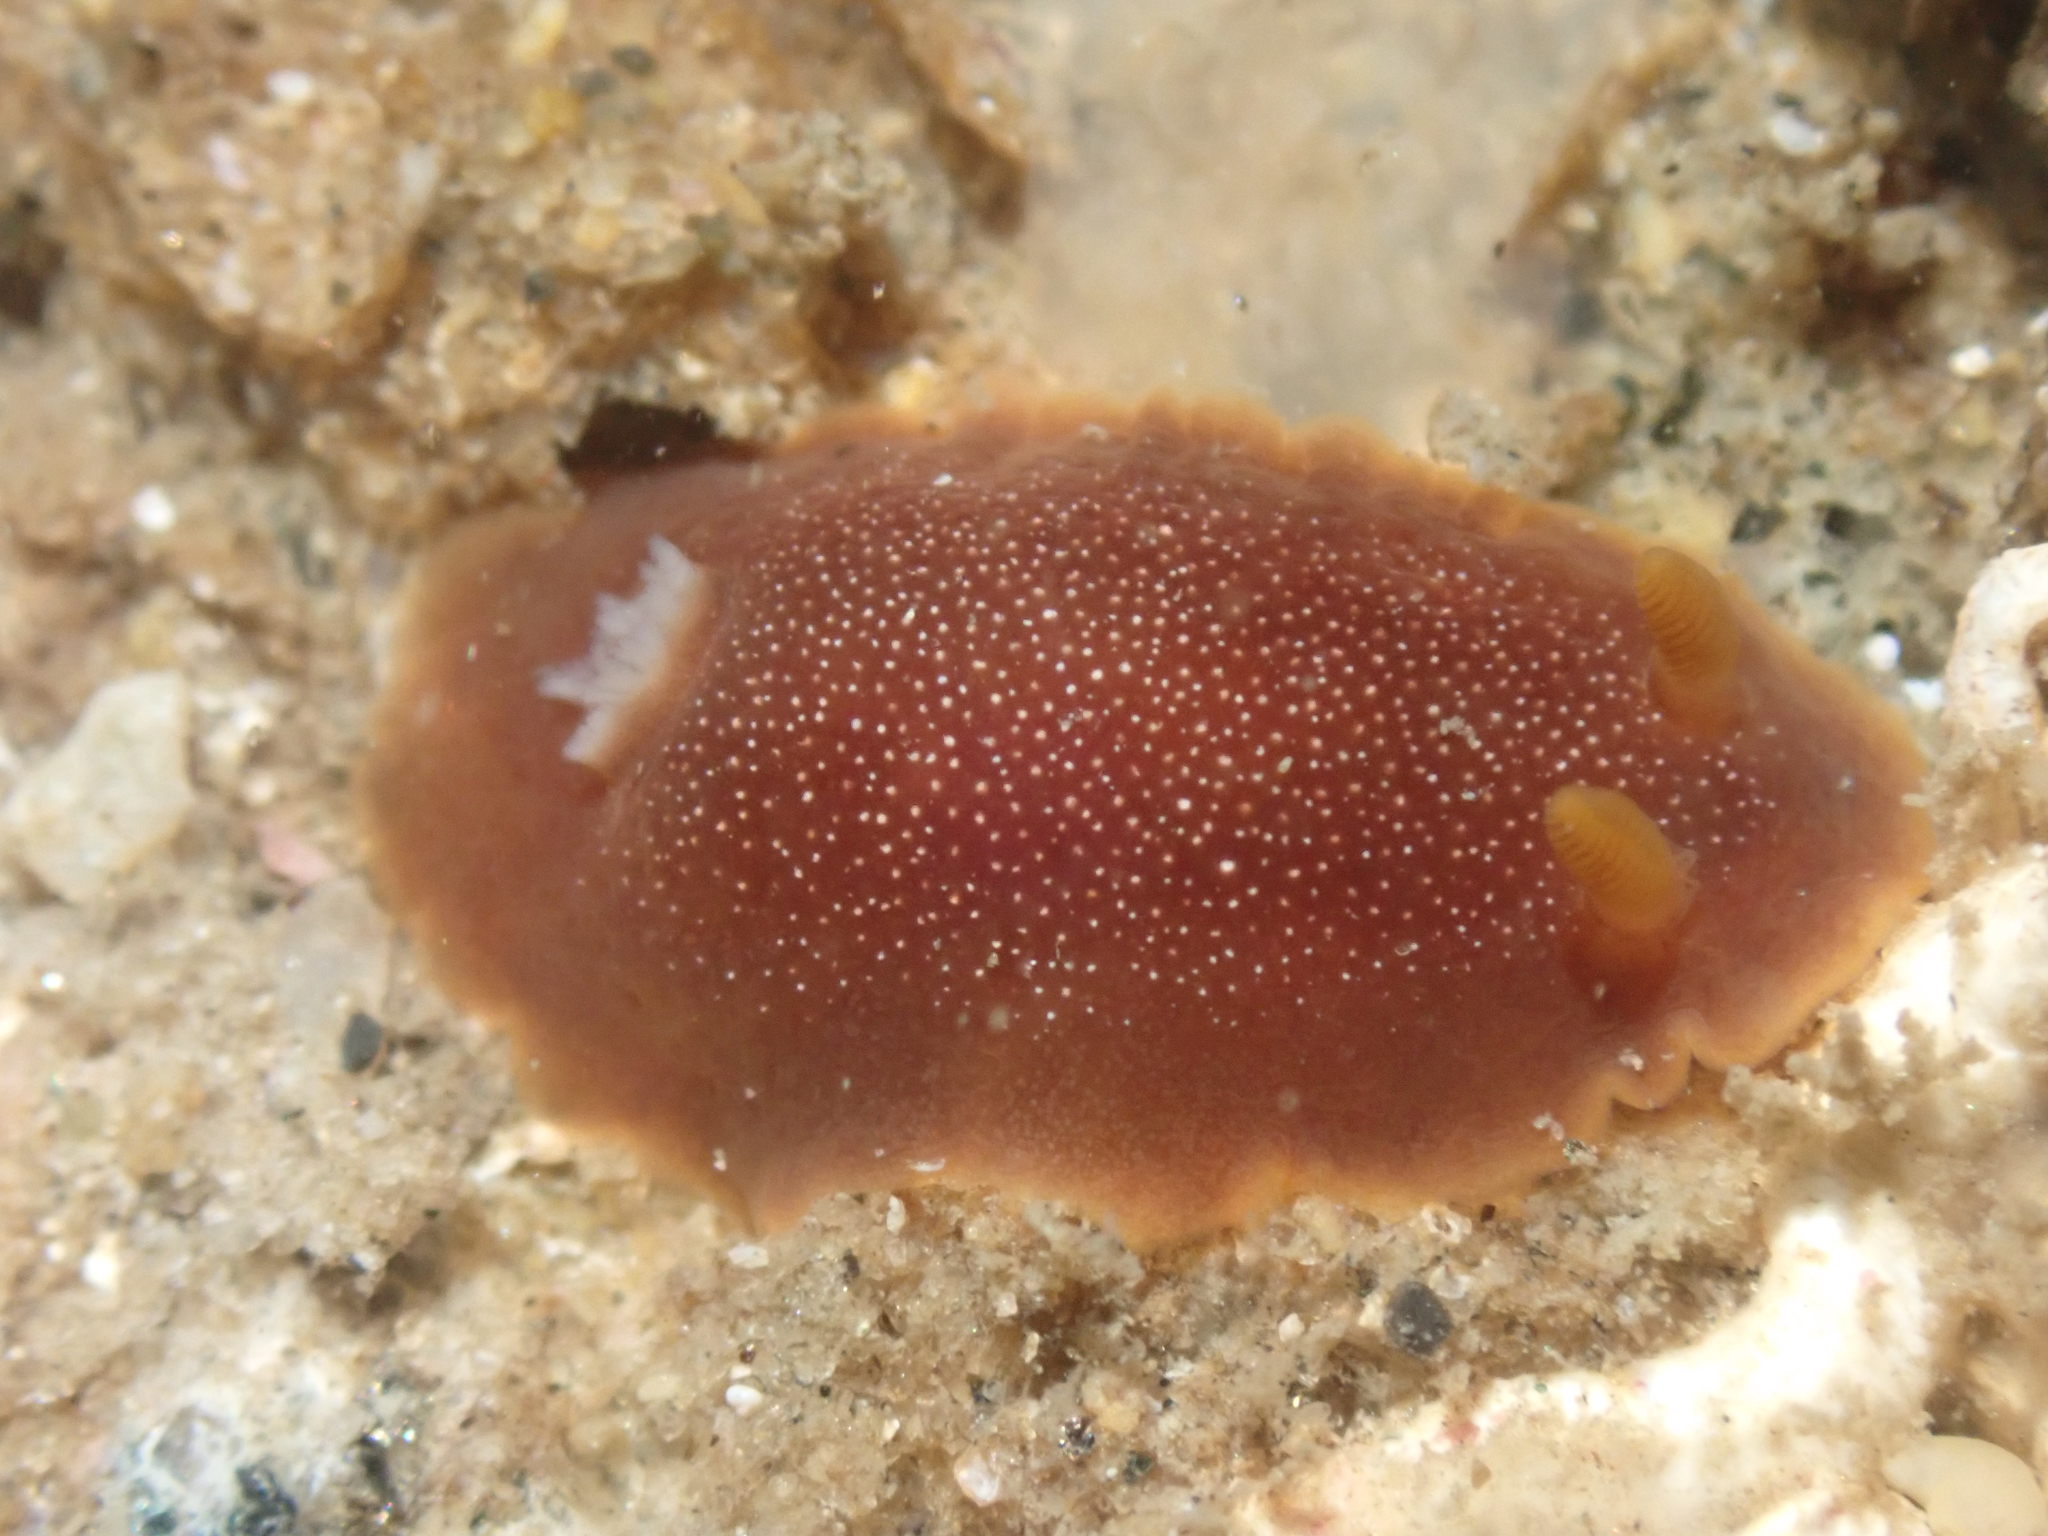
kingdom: Animalia
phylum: Mollusca
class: Gastropoda
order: Nudibranchia
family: Dendrodorididae
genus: Doriopsilla
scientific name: Doriopsilla albopunctata
